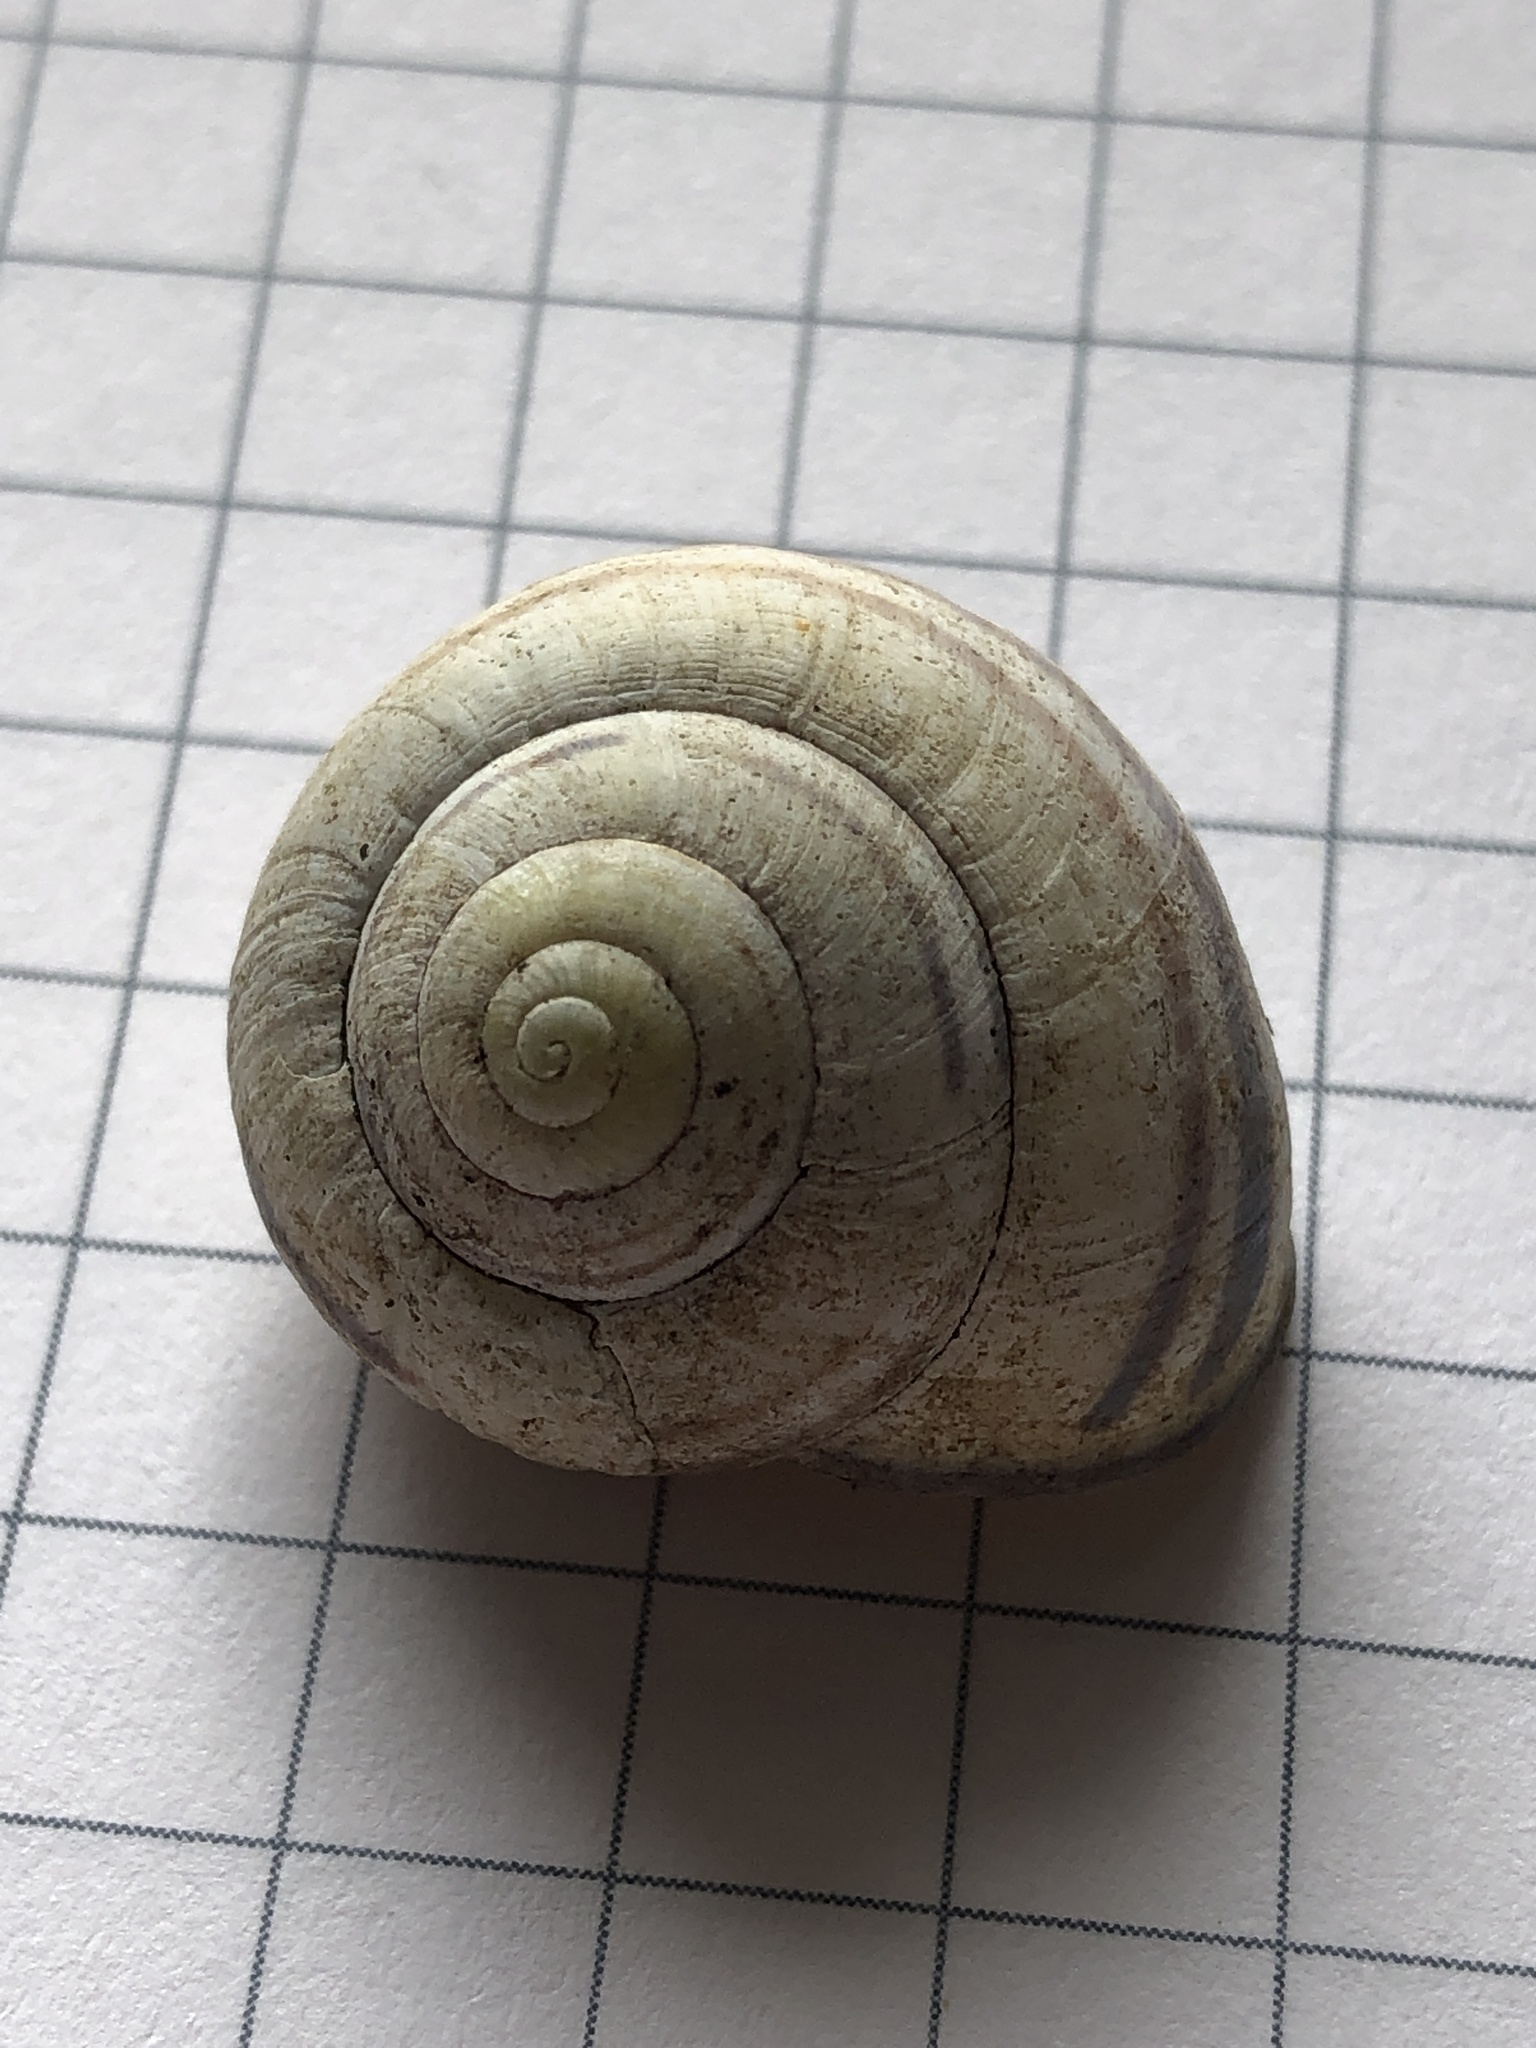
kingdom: Animalia
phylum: Mollusca
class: Gastropoda
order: Stylommatophora
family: Helicidae
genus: Cepaea
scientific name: Cepaea nemoralis
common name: Grovesnail
